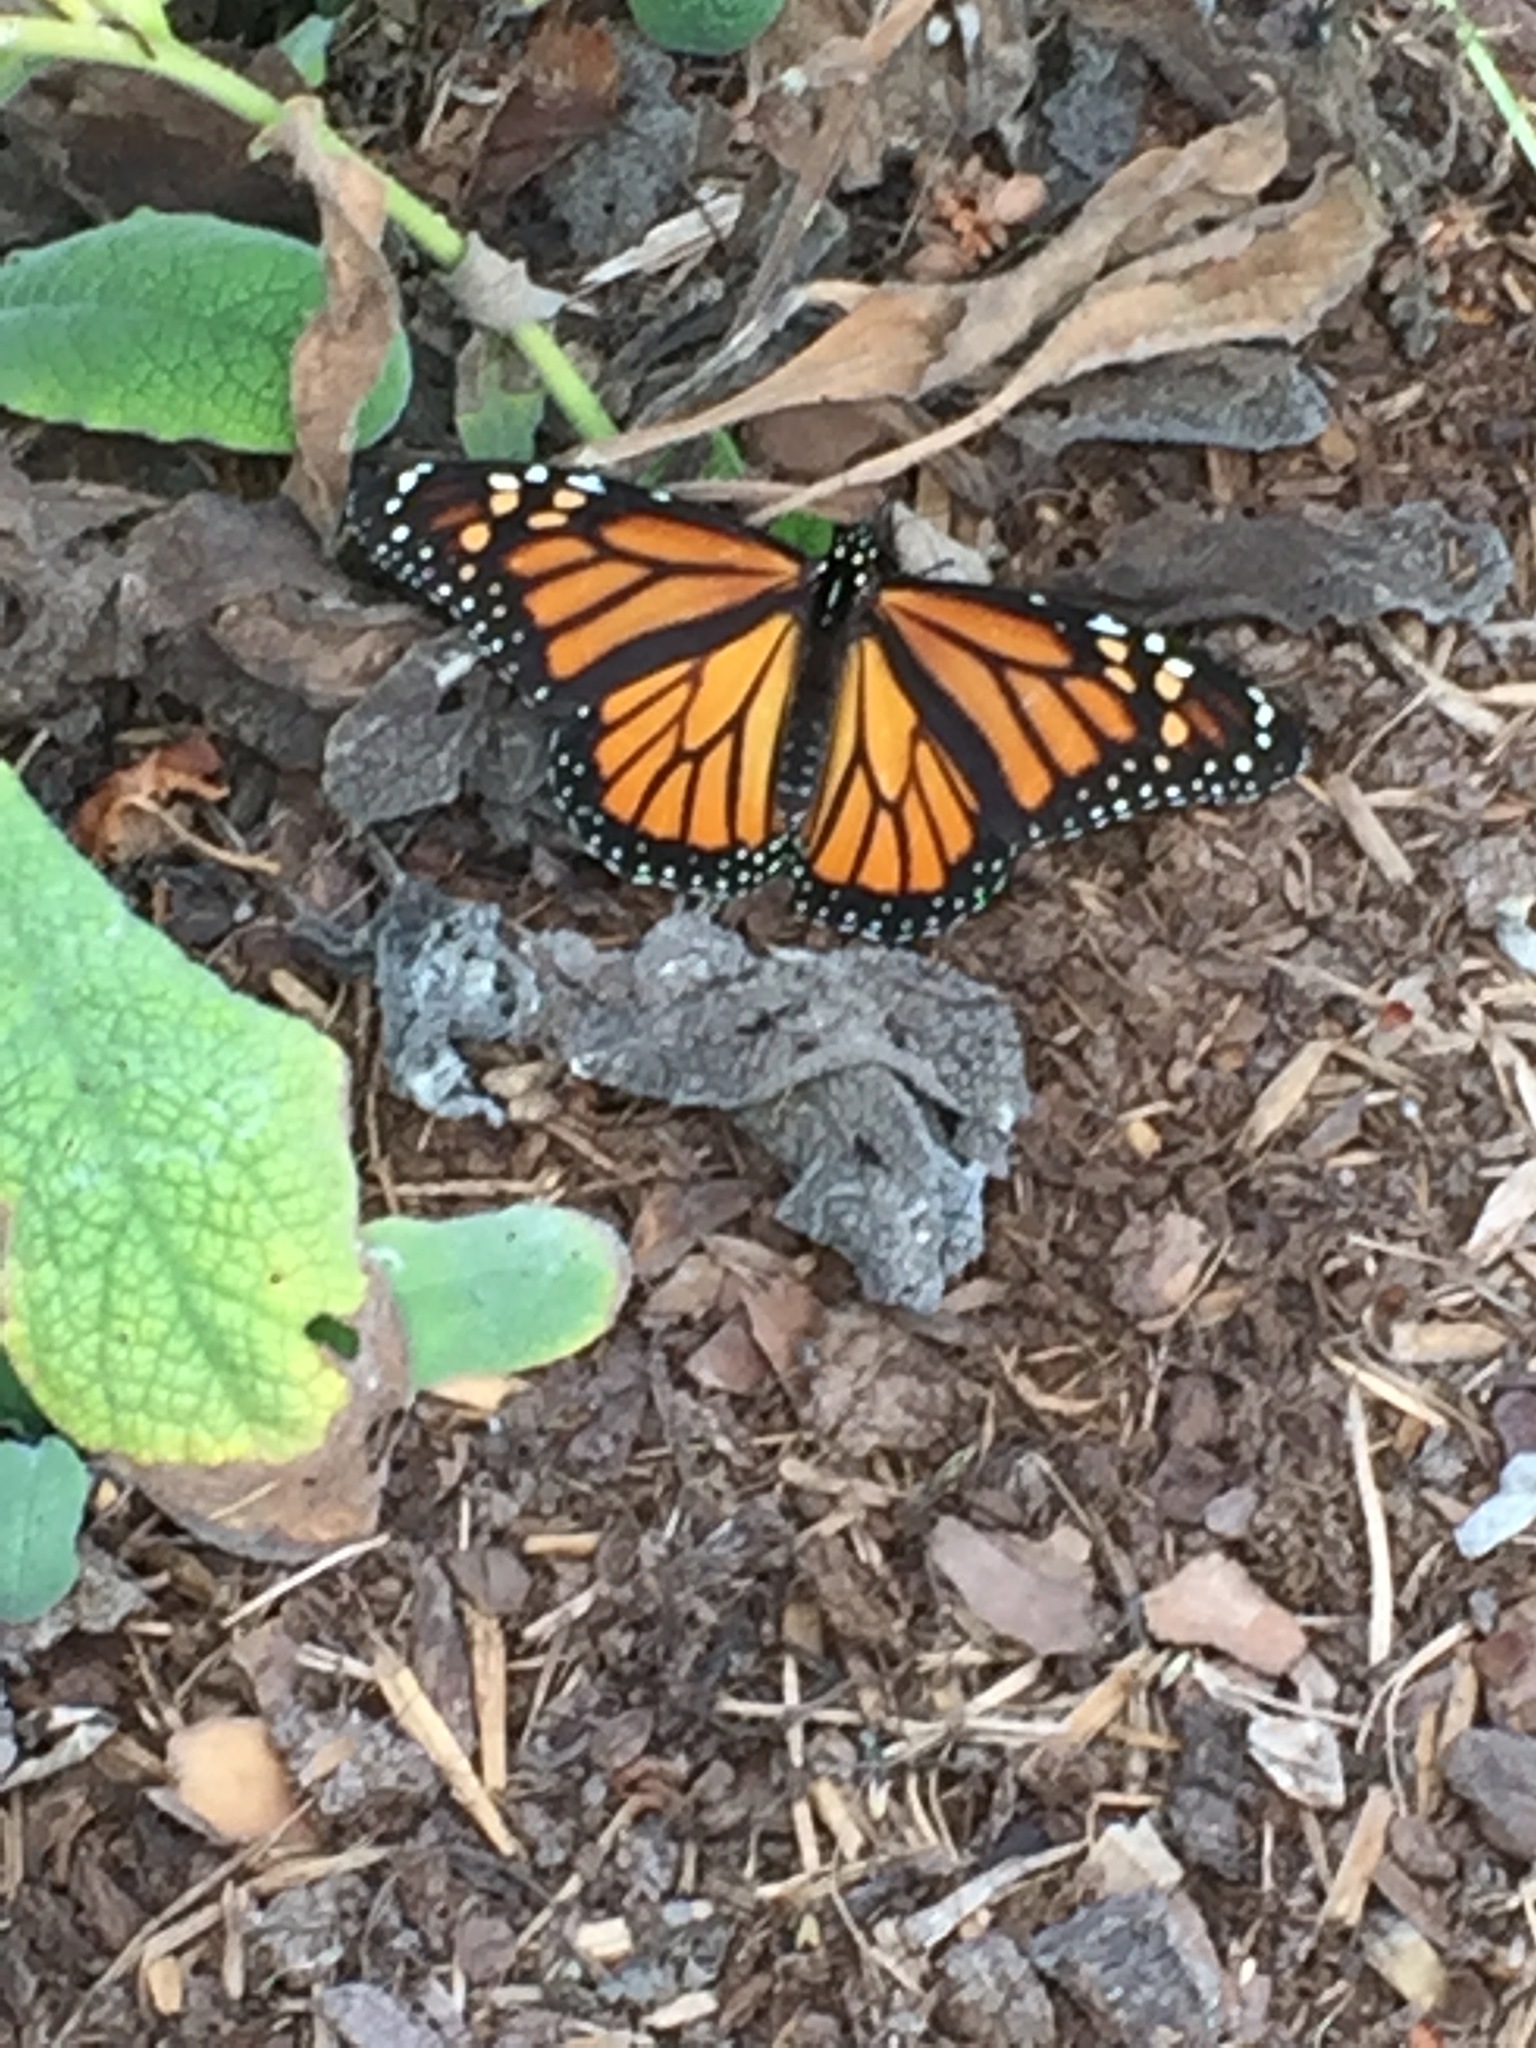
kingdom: Animalia
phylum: Arthropoda
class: Insecta
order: Lepidoptera
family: Nymphalidae
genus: Danaus
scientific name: Danaus plexippus
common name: Monarch
